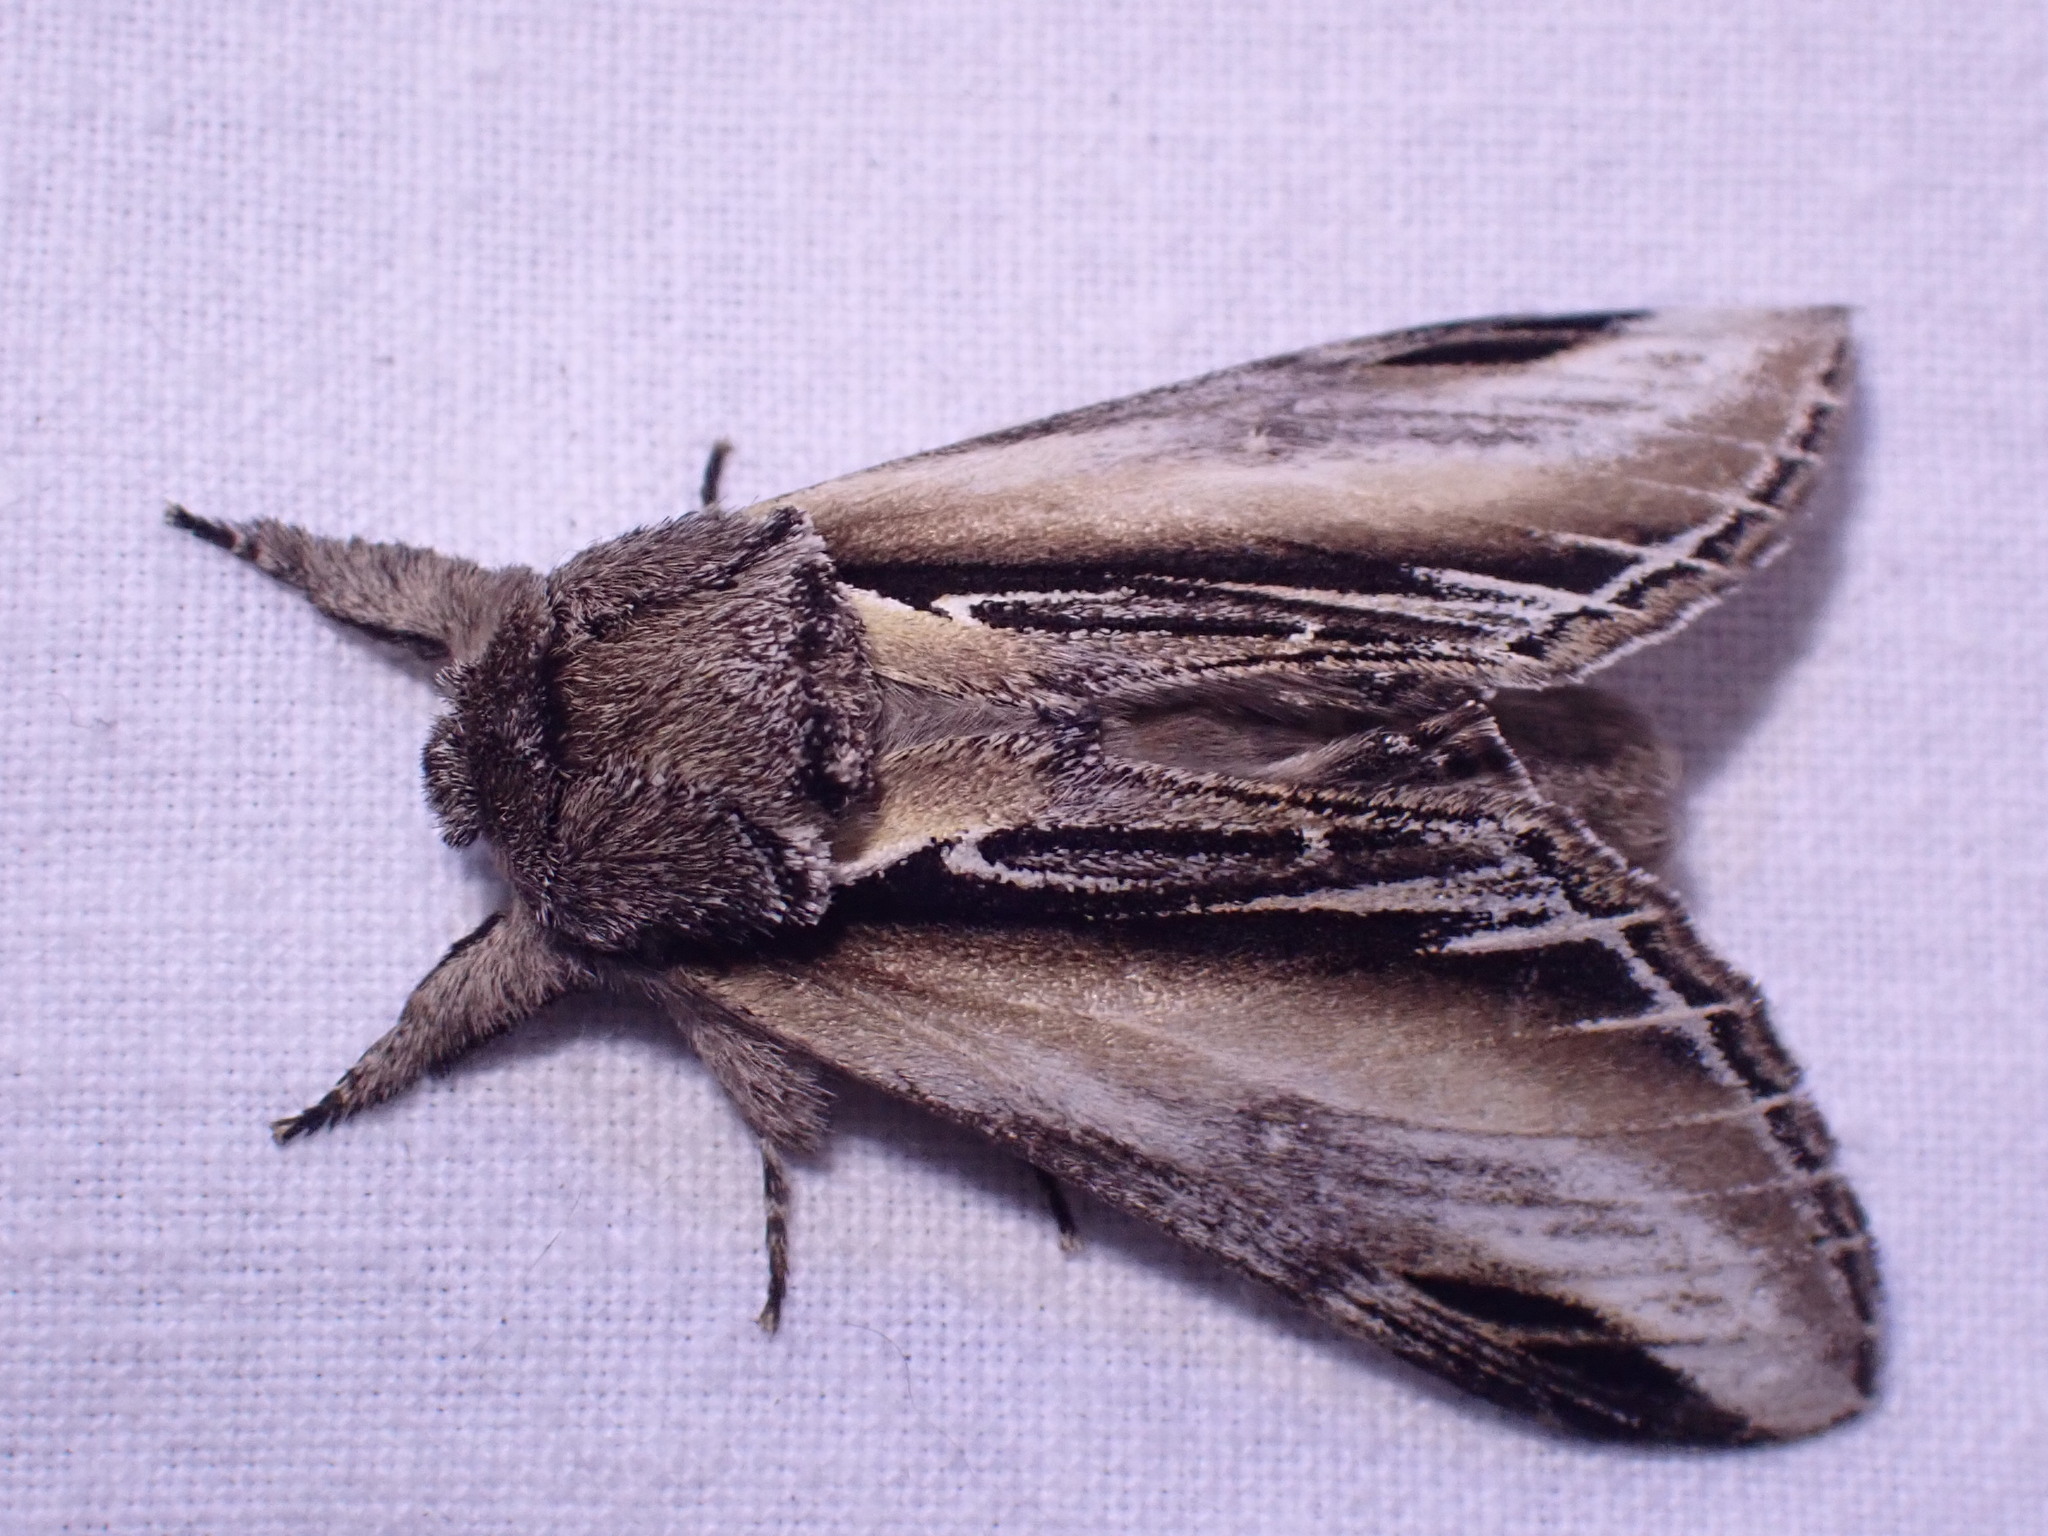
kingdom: Animalia
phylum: Arthropoda
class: Insecta
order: Lepidoptera
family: Notodontidae
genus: Pheosia
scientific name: Pheosia tremula
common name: Swallow prominent
